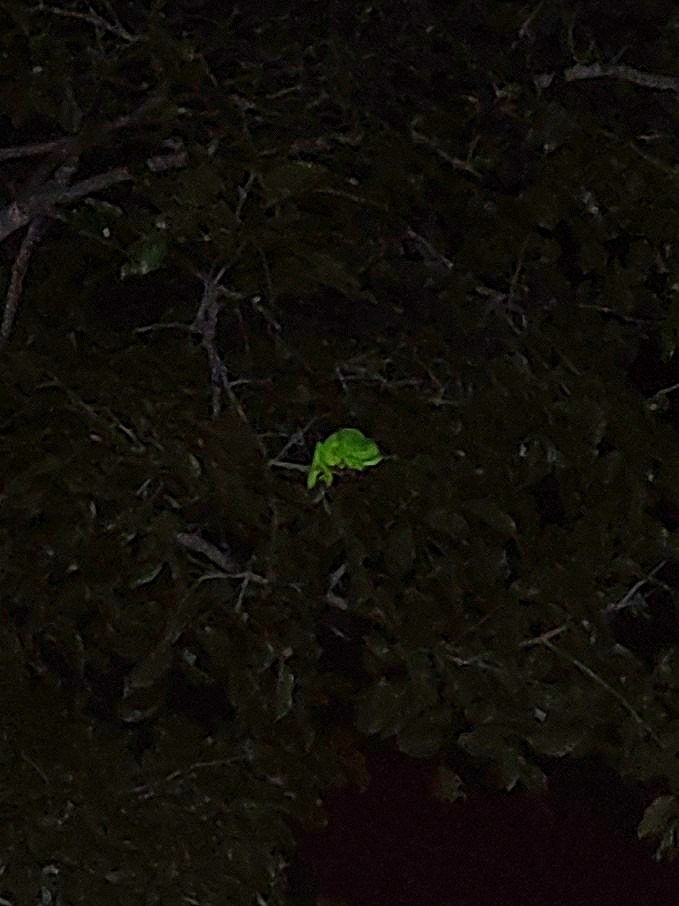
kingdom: Animalia
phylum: Chordata
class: Squamata
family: Chamaeleonidae
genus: Chamaeleo
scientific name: Chamaeleo zeylanicus
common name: Indian chameleon
